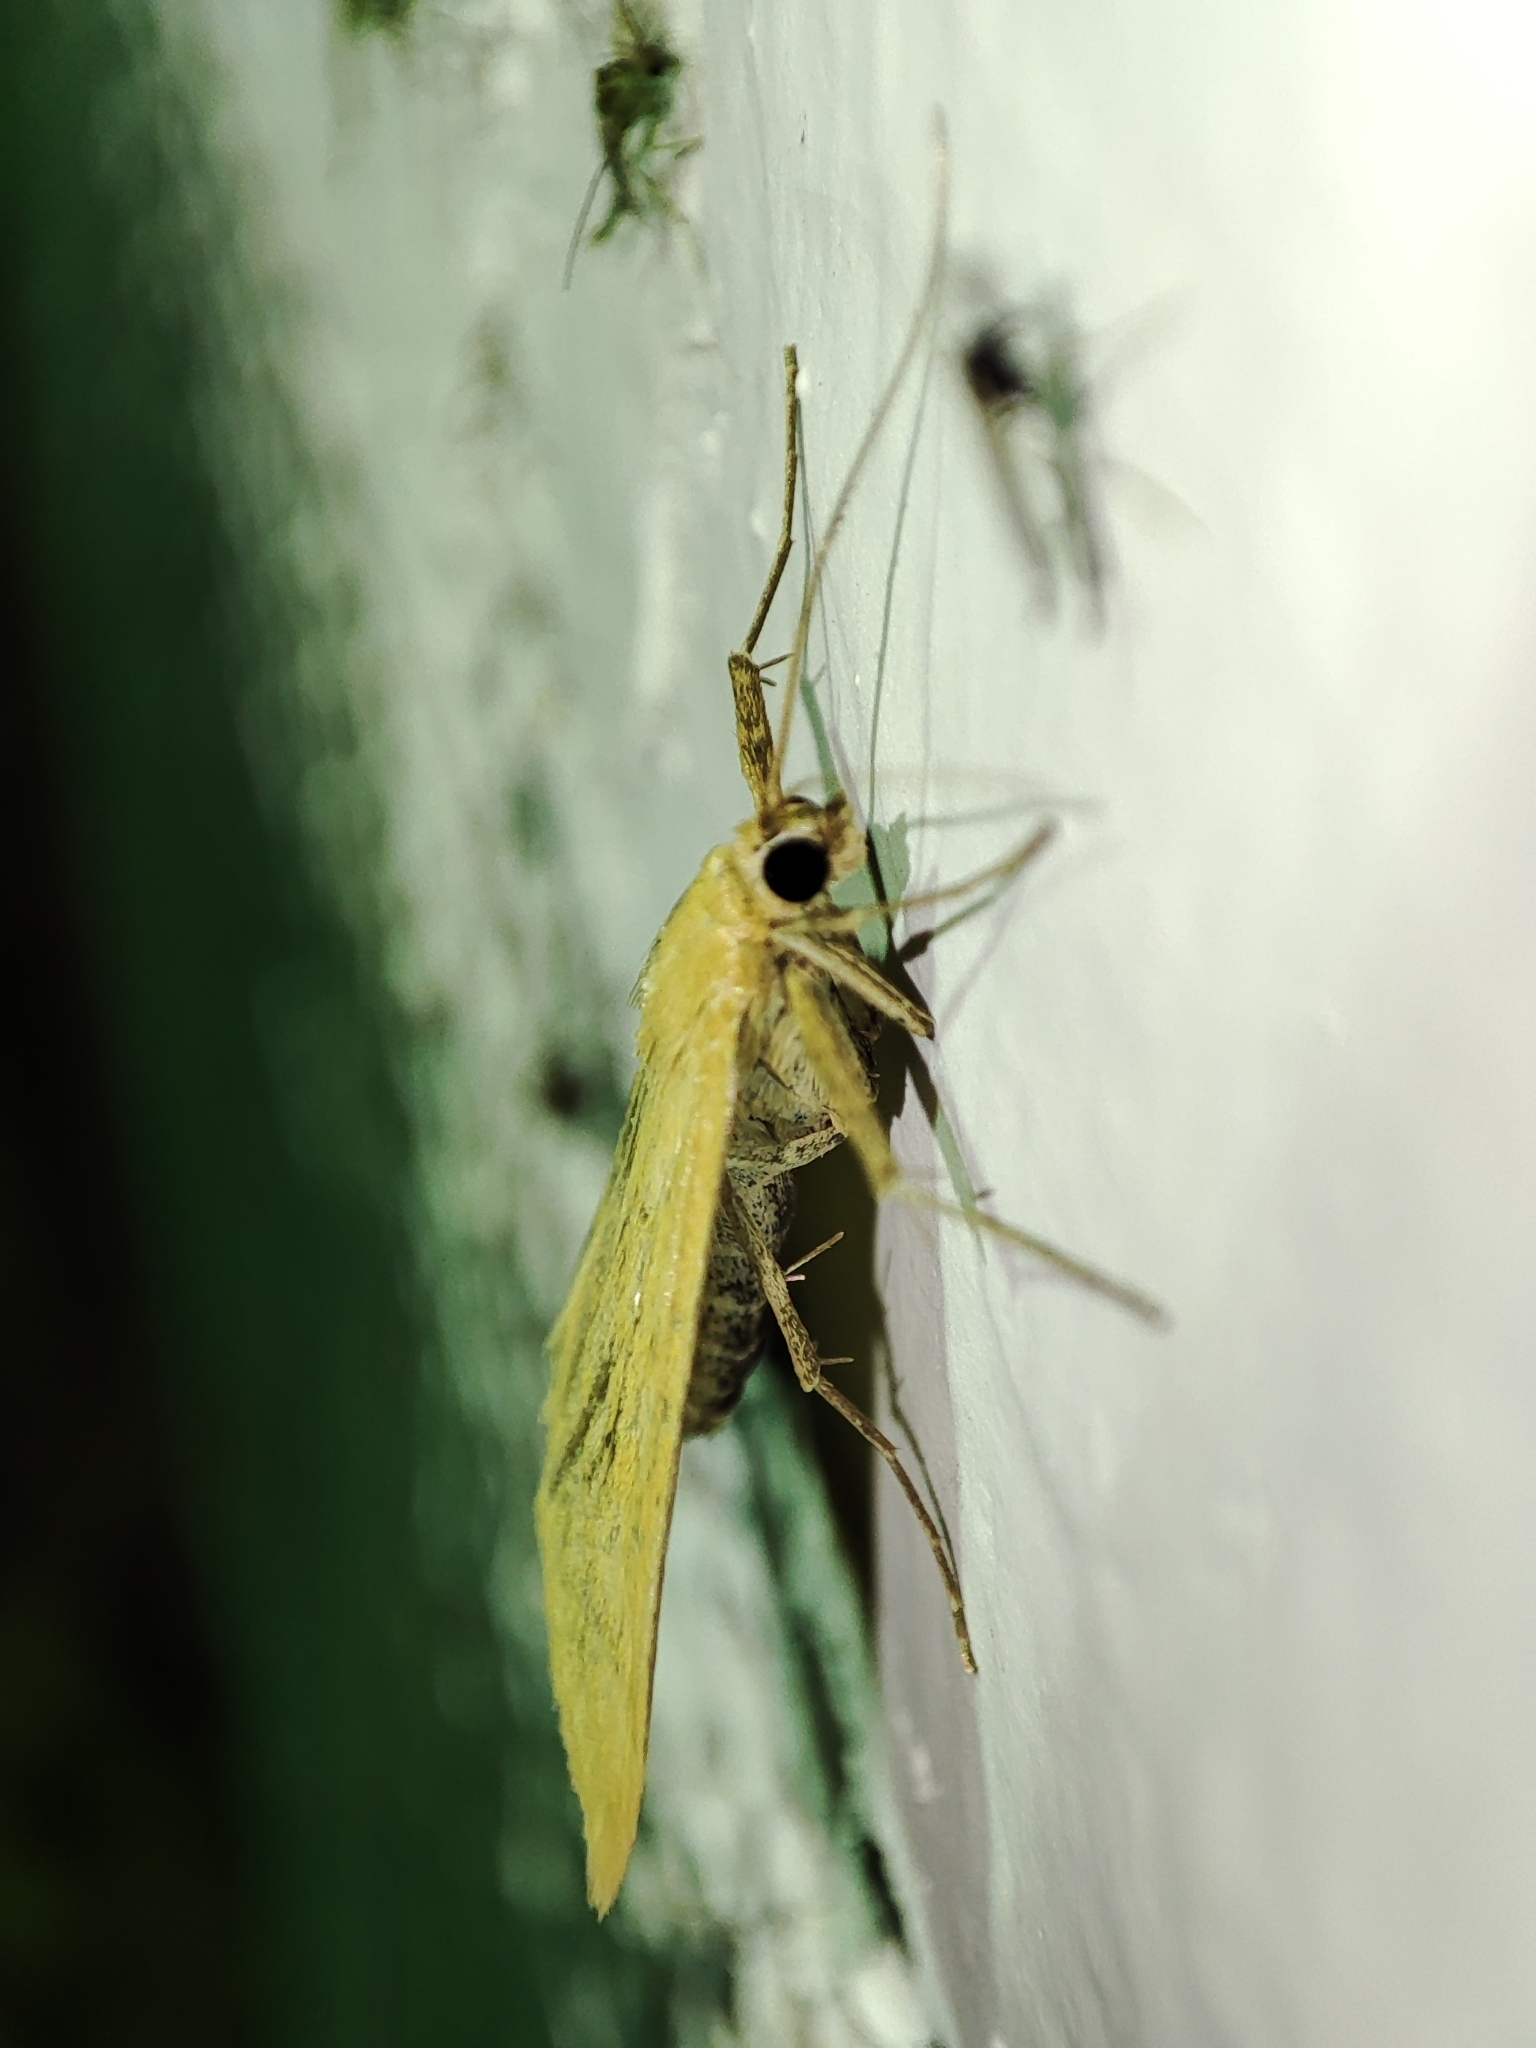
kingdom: Animalia
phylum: Arthropoda
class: Insecta
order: Lepidoptera
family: Crambidae
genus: Sitochroa
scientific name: Sitochroa verticalis
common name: Lesser pearl
